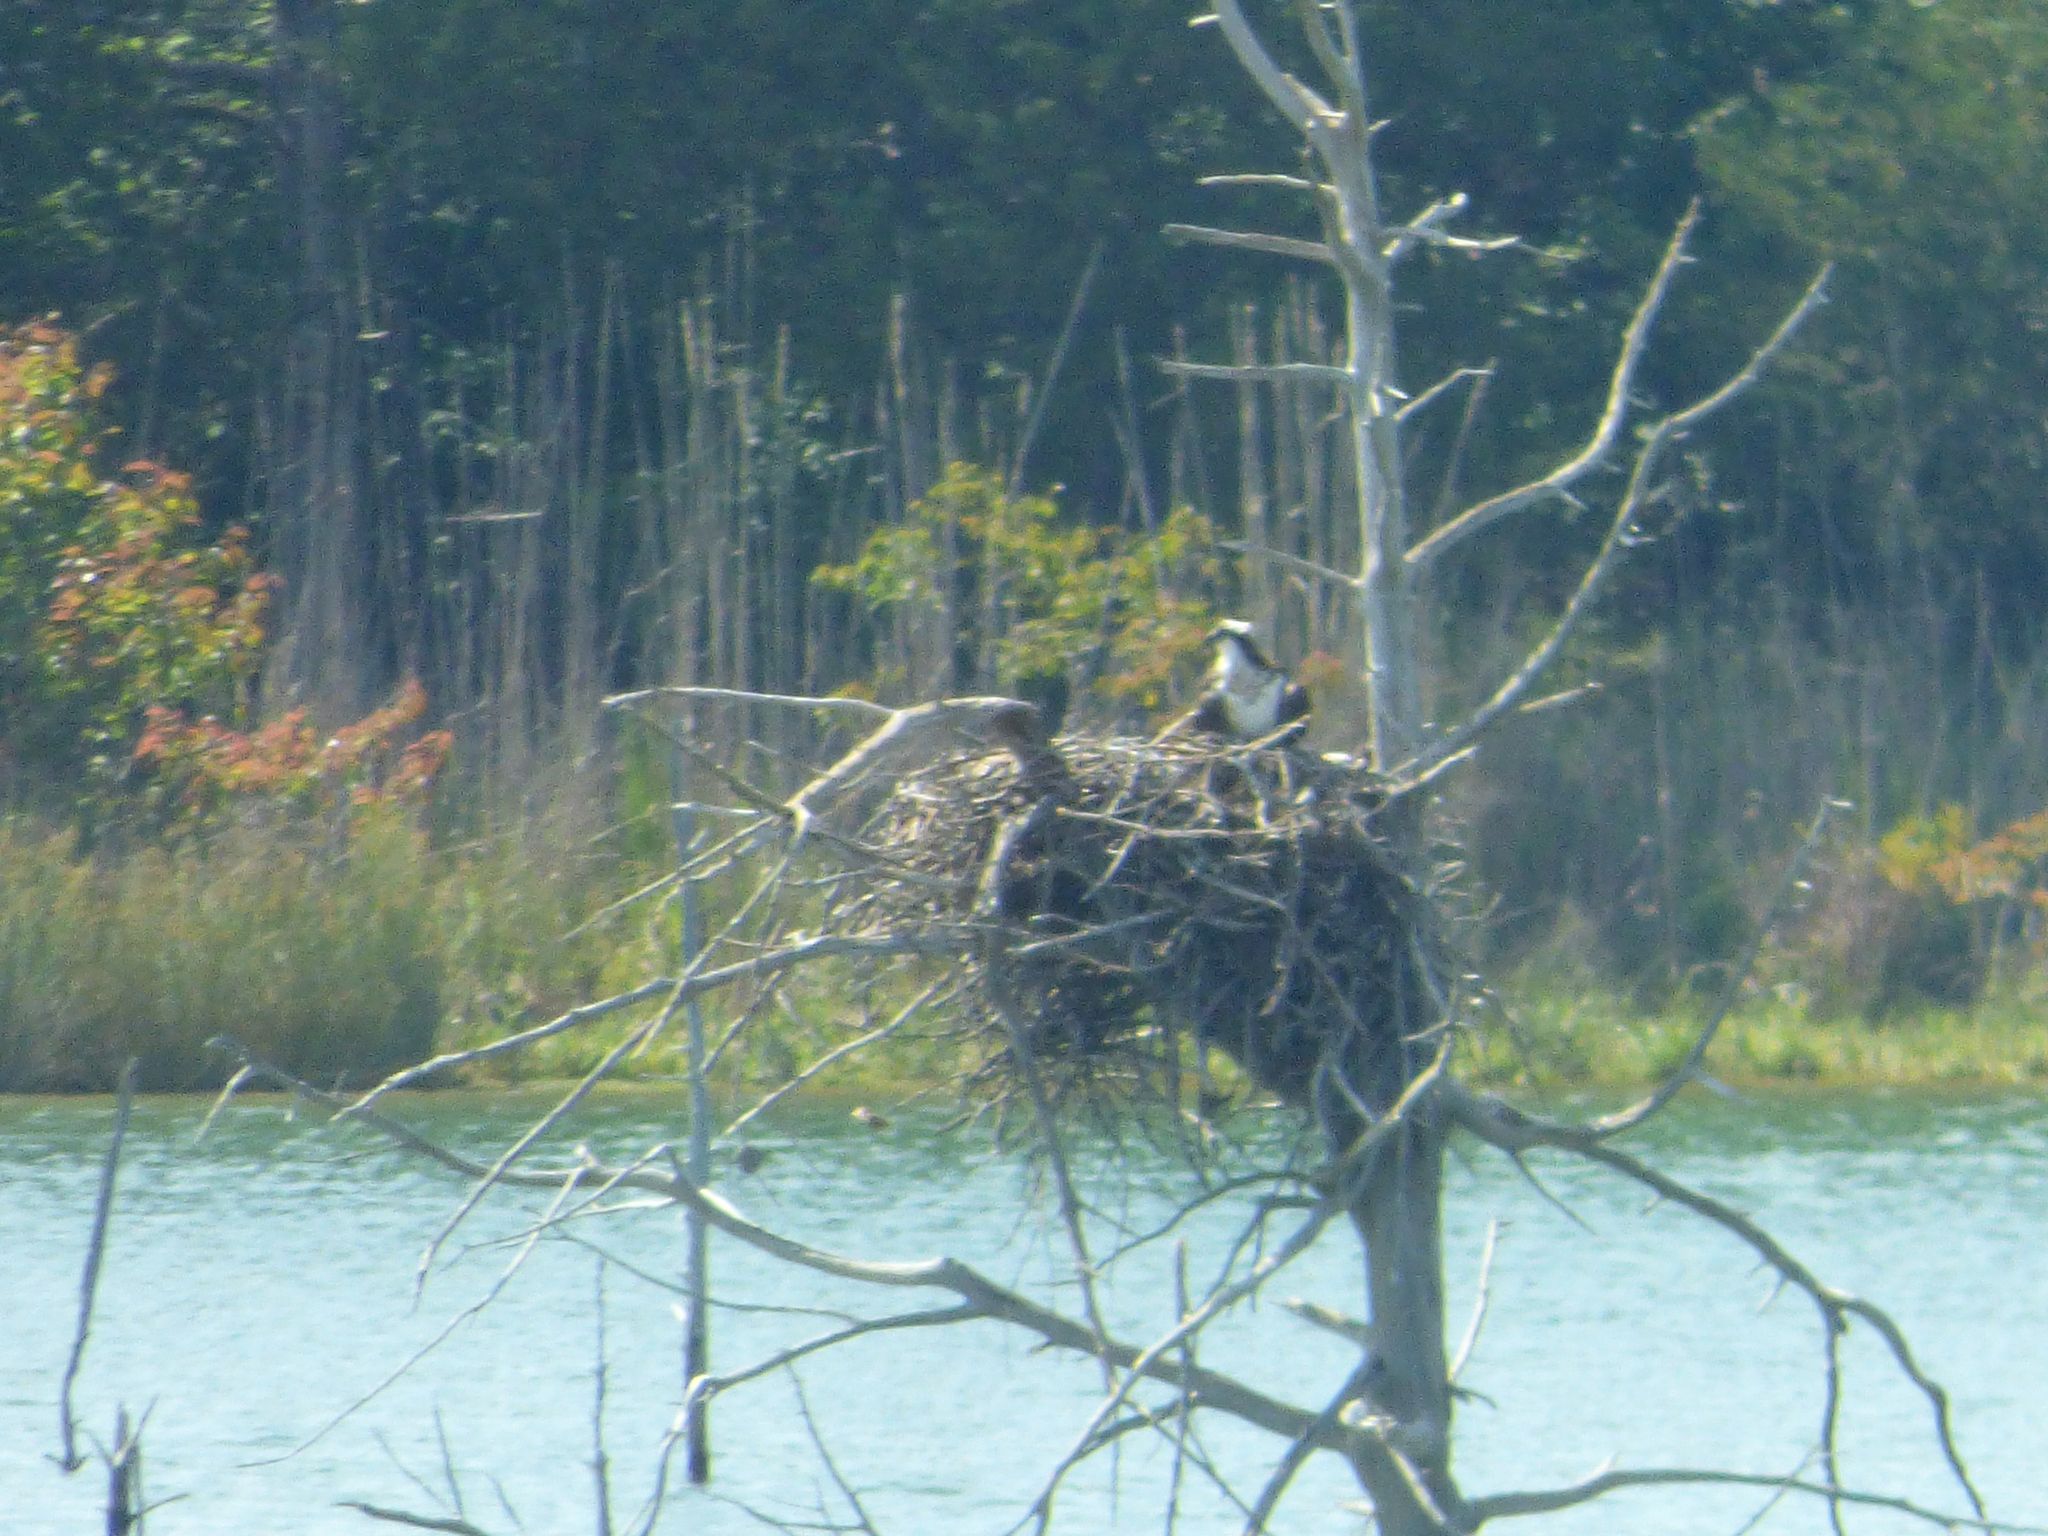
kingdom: Animalia
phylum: Chordata
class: Aves
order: Accipitriformes
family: Pandionidae
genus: Pandion
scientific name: Pandion haliaetus
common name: Osprey
